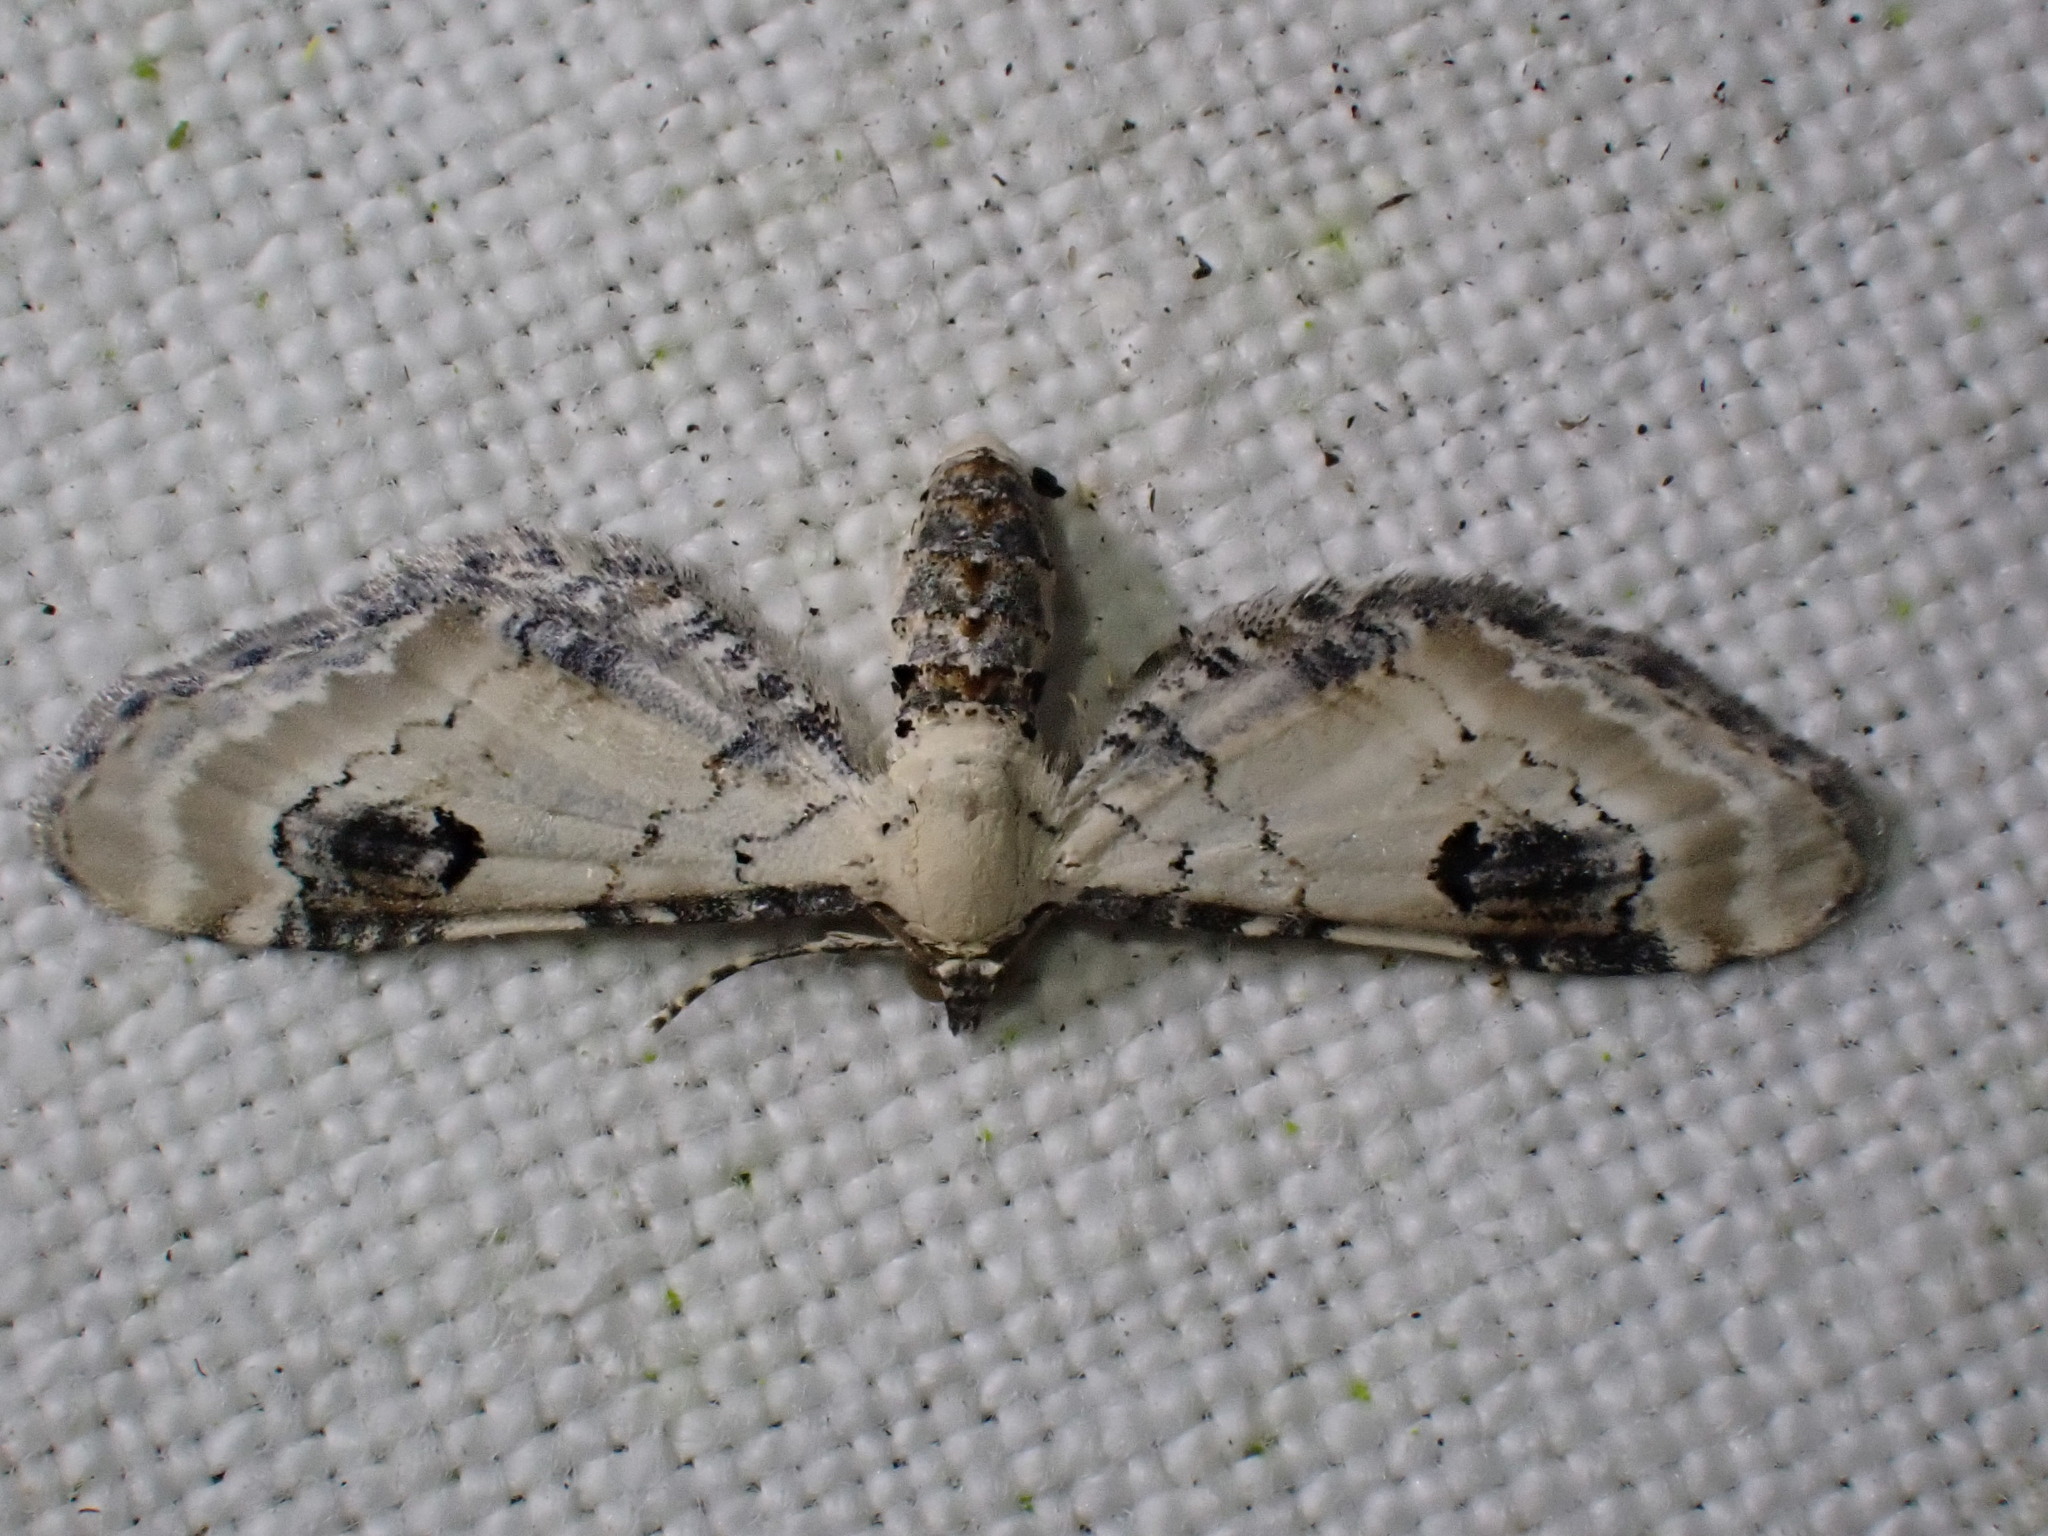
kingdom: Animalia
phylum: Arthropoda
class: Insecta
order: Lepidoptera
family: Geometridae
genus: Eupithecia
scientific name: Eupithecia centaureata
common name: Lime-speck pug
